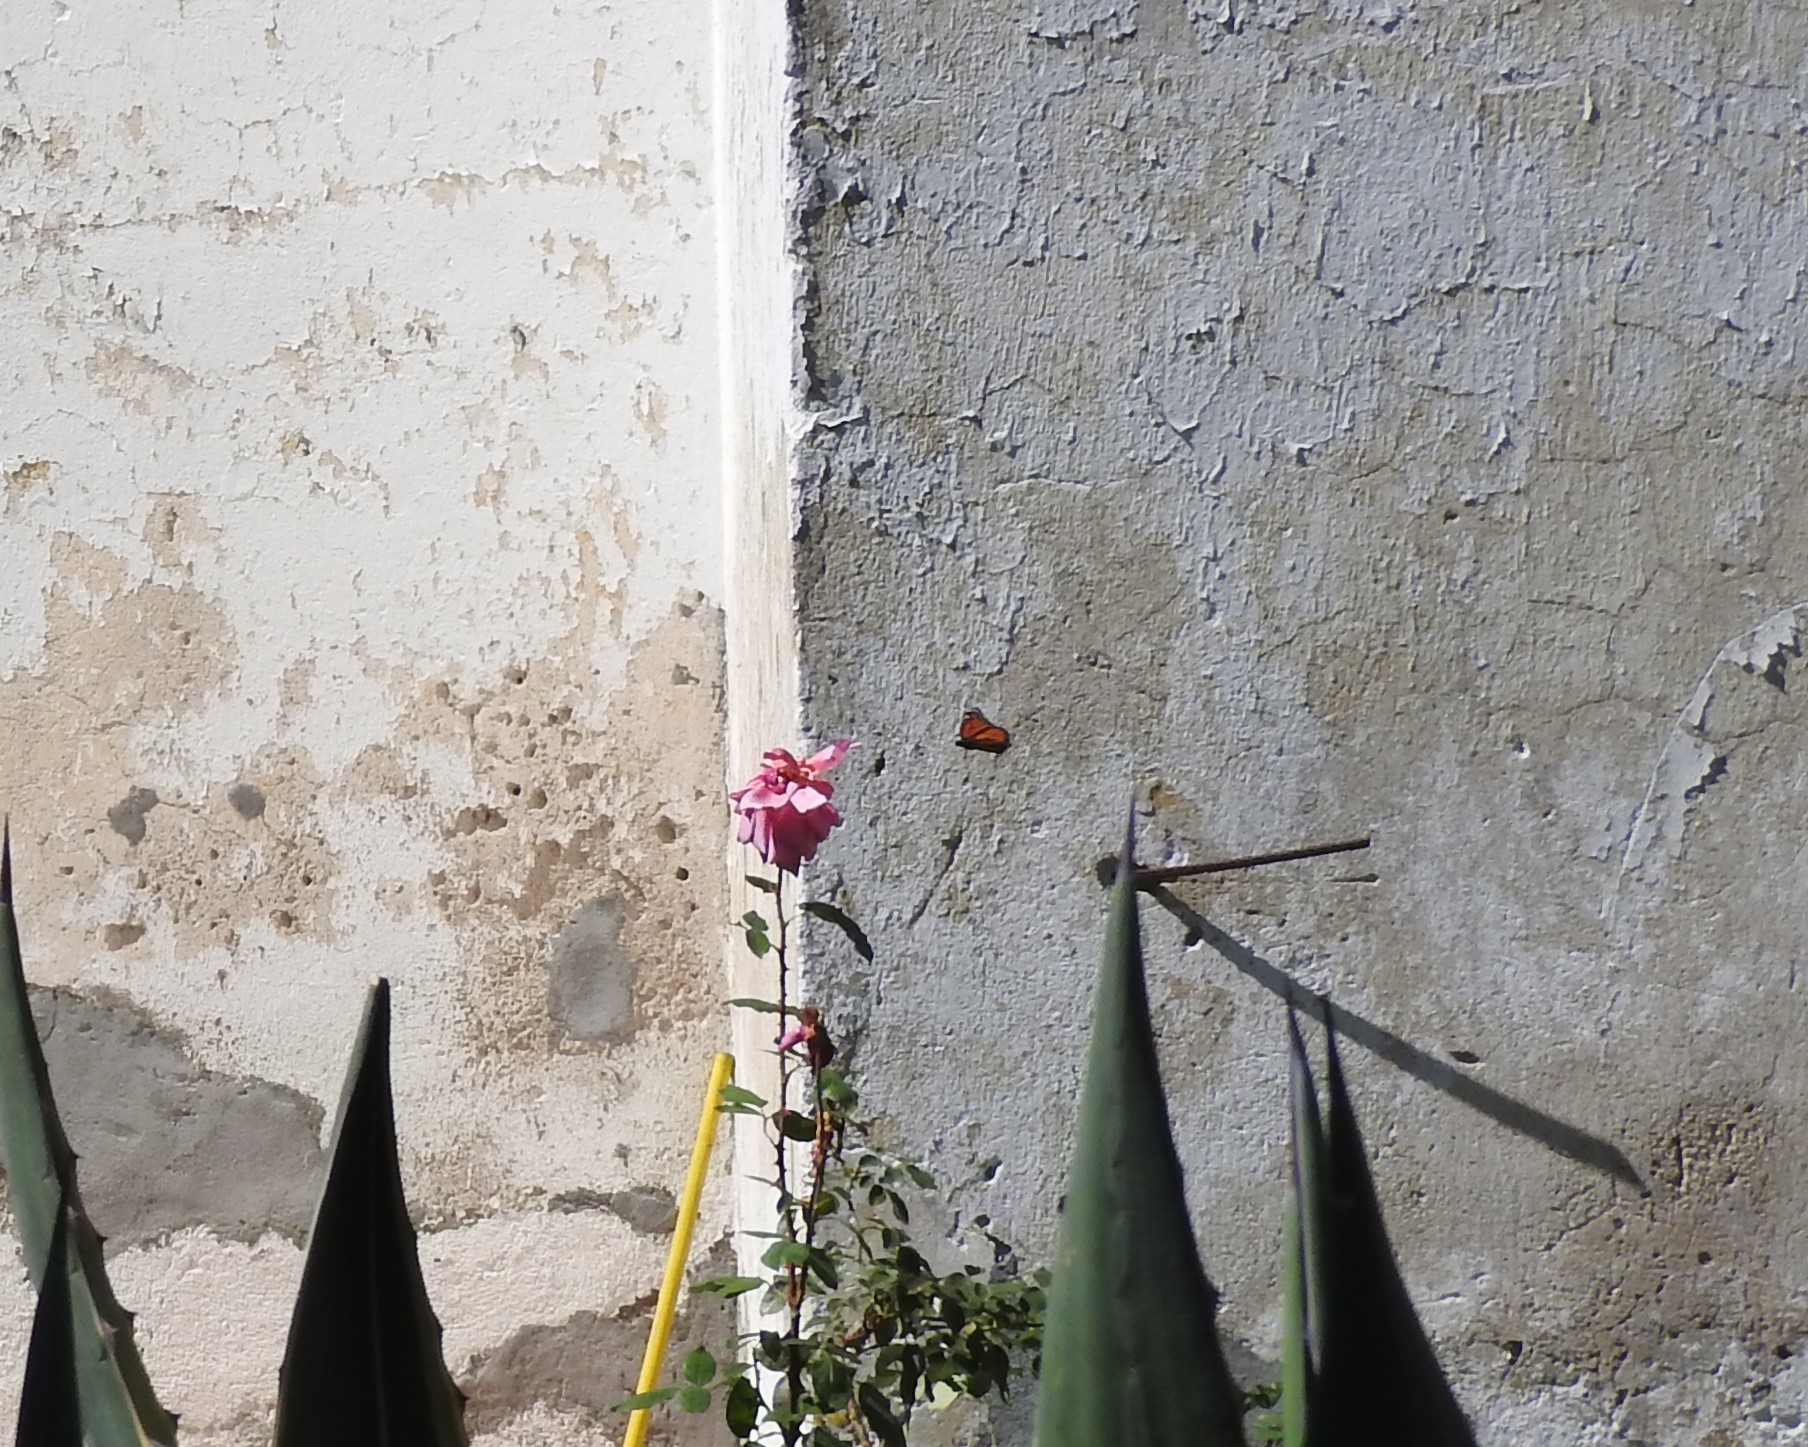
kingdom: Animalia
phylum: Arthropoda
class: Insecta
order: Lepidoptera
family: Nymphalidae
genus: Danaus
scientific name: Danaus plexippus
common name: Monarch
